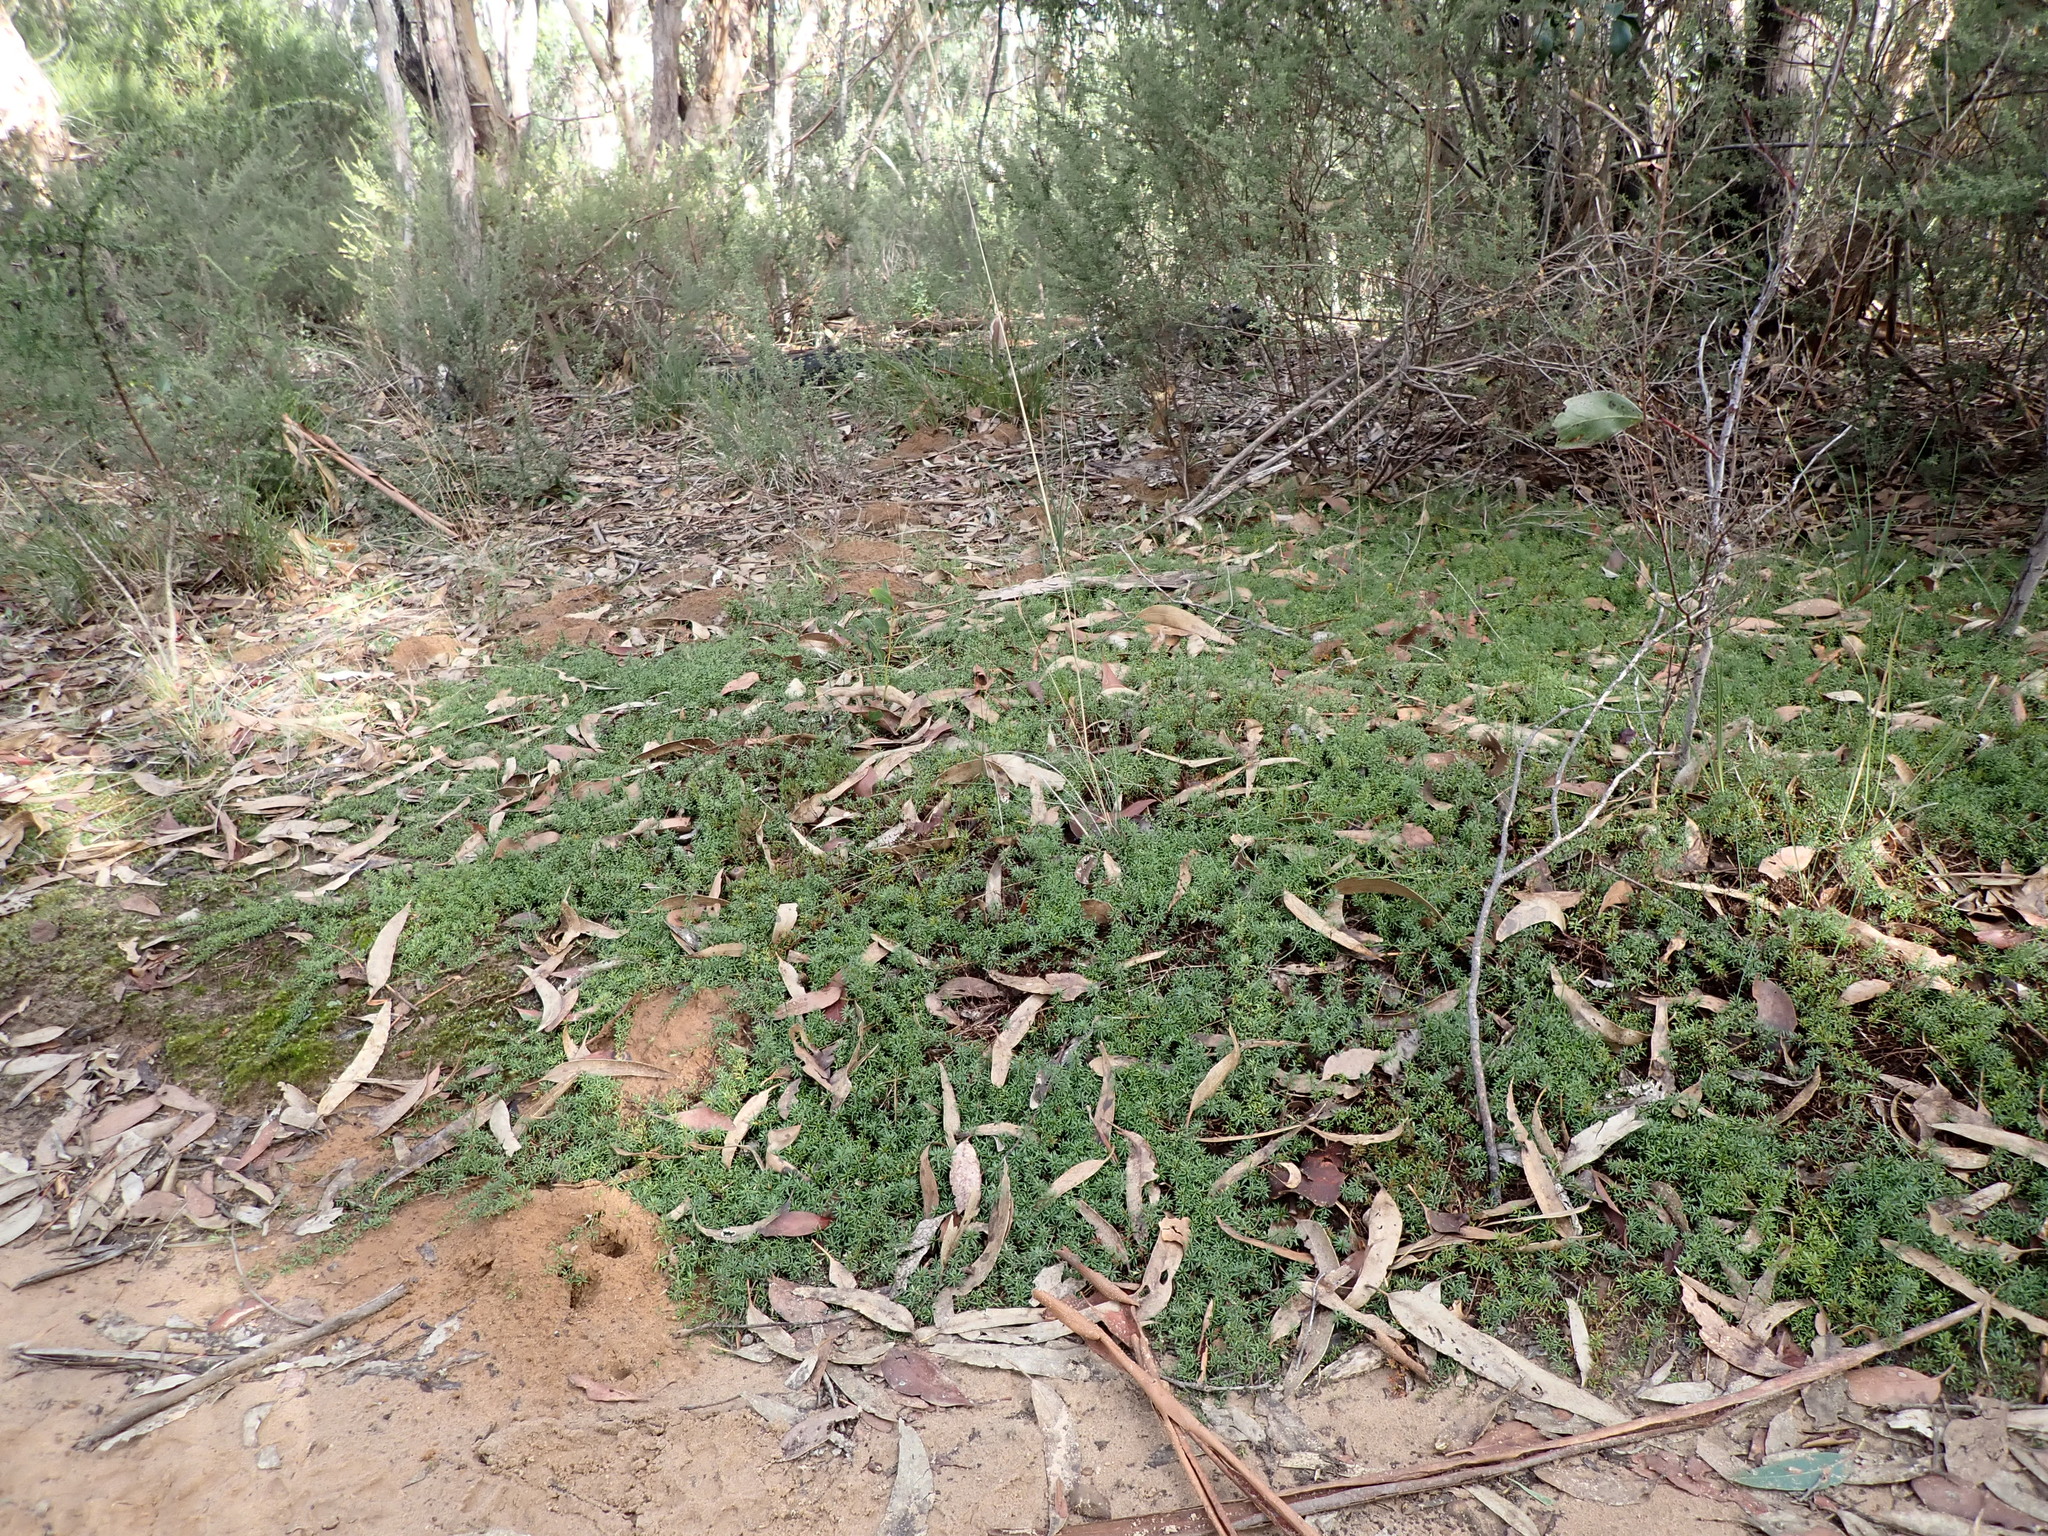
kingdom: Plantae
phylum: Tracheophyta
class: Magnoliopsida
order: Fabales
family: Fabaceae
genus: Pultenaea
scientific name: Pultenaea pedunculata
